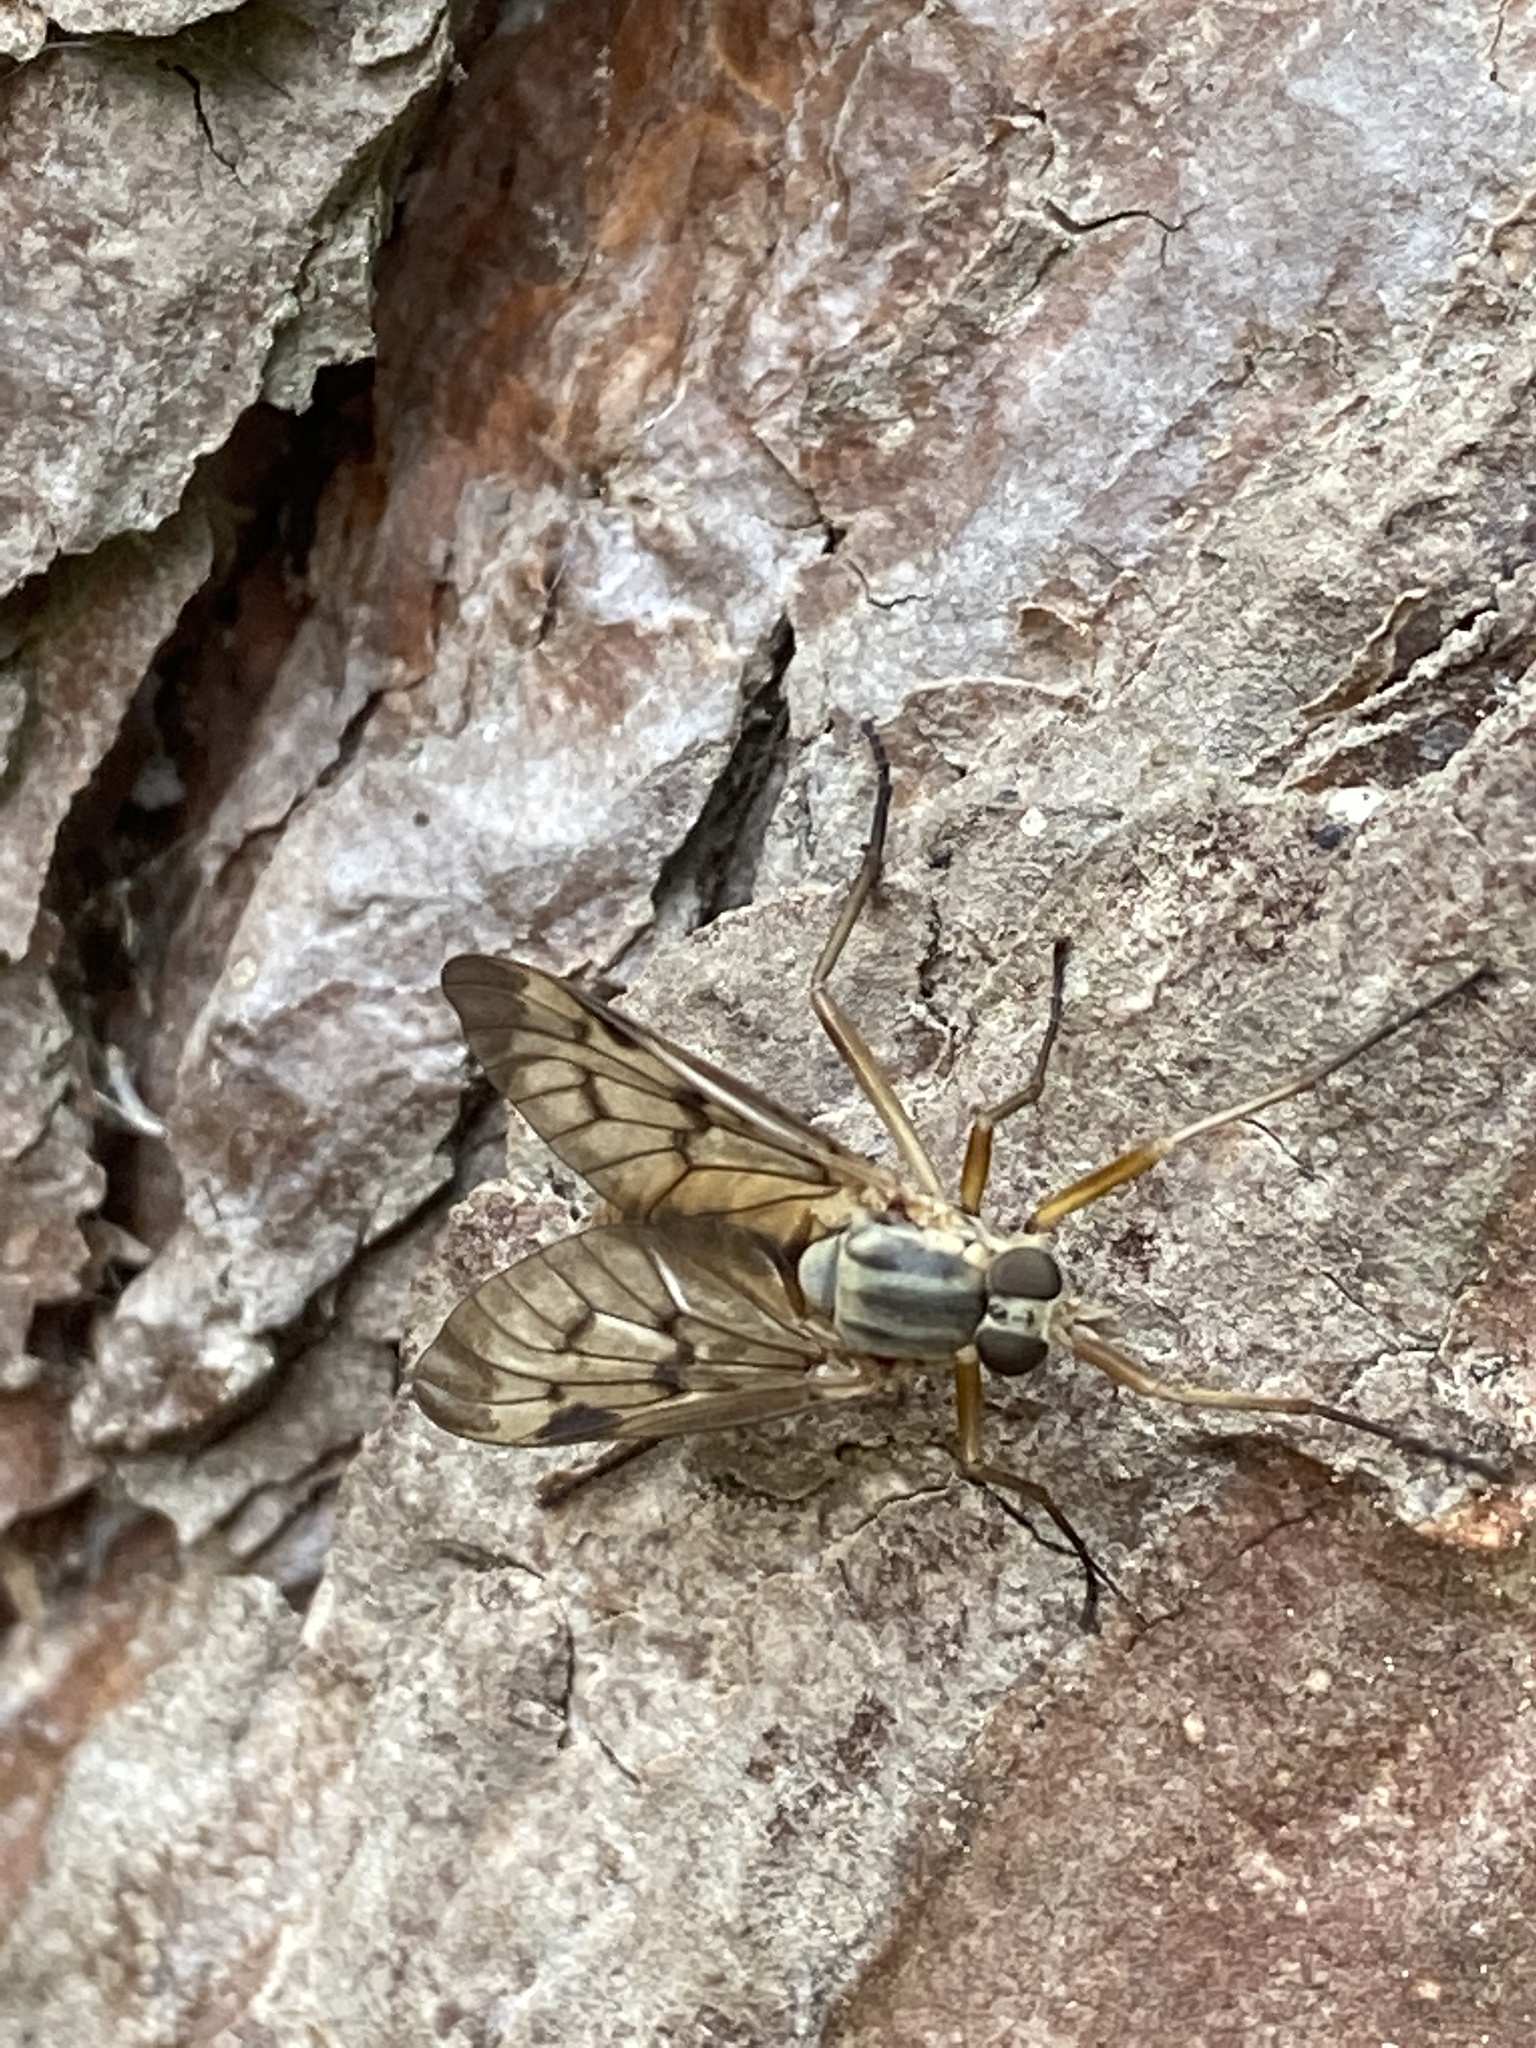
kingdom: Animalia
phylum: Arthropoda
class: Insecta
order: Diptera
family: Rhagionidae
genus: Rhagio
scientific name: Rhagio scolopacea
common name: Downlooker snipefly
